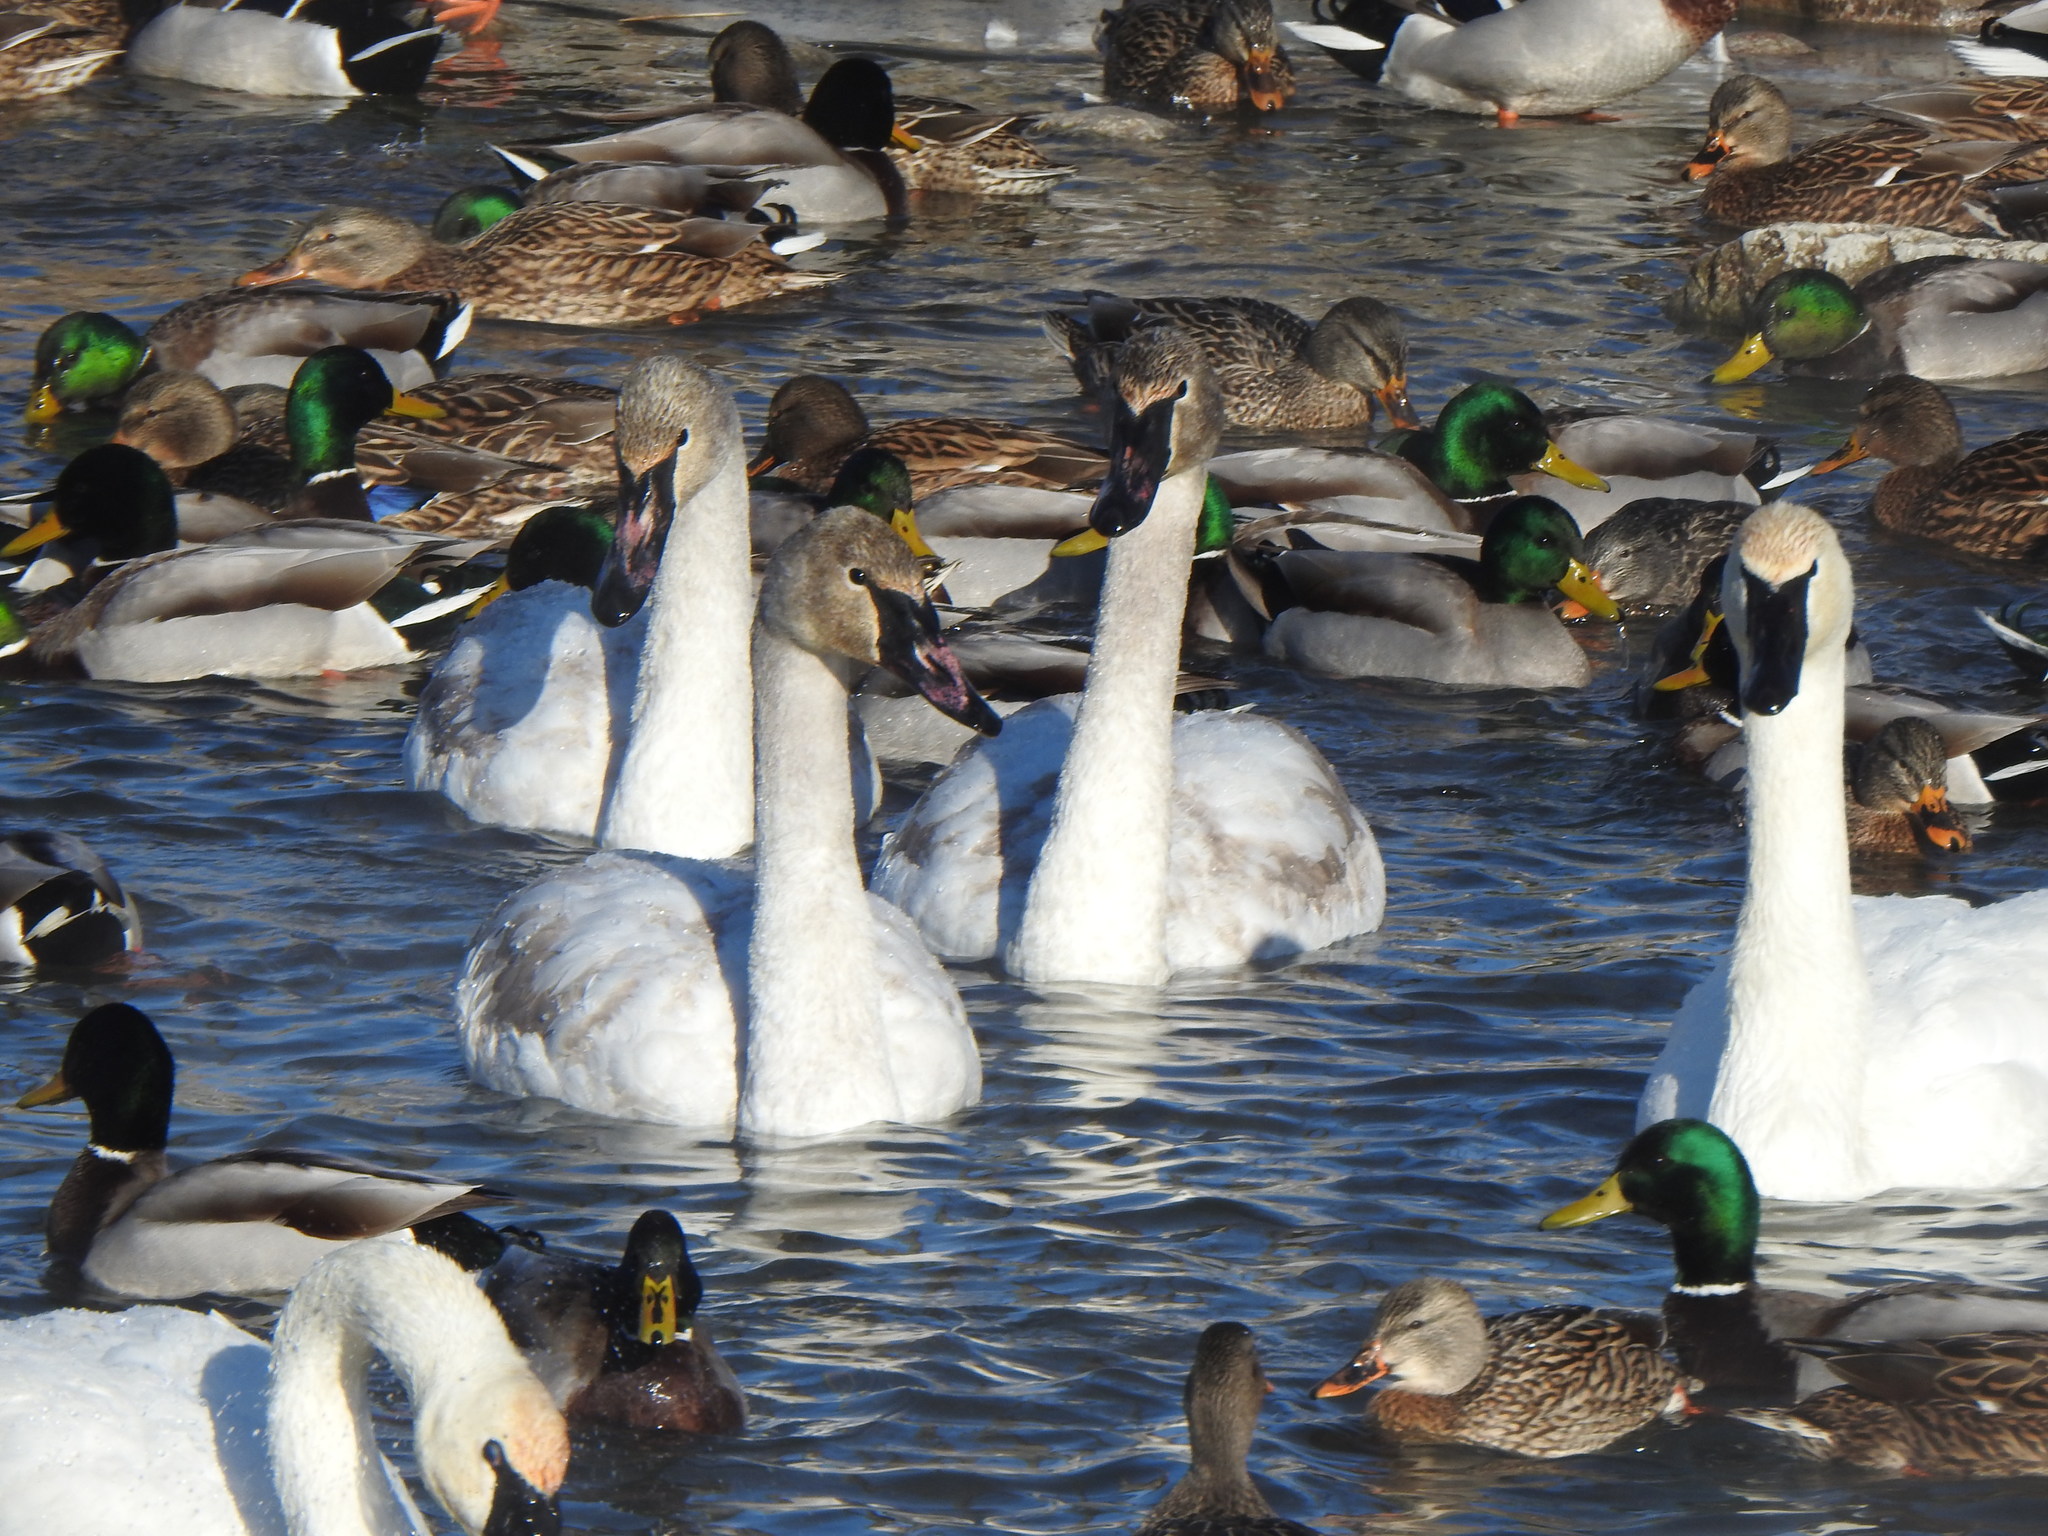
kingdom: Animalia
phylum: Chordata
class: Aves
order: Anseriformes
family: Anatidae
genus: Cygnus
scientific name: Cygnus buccinator
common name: Trumpeter swan
